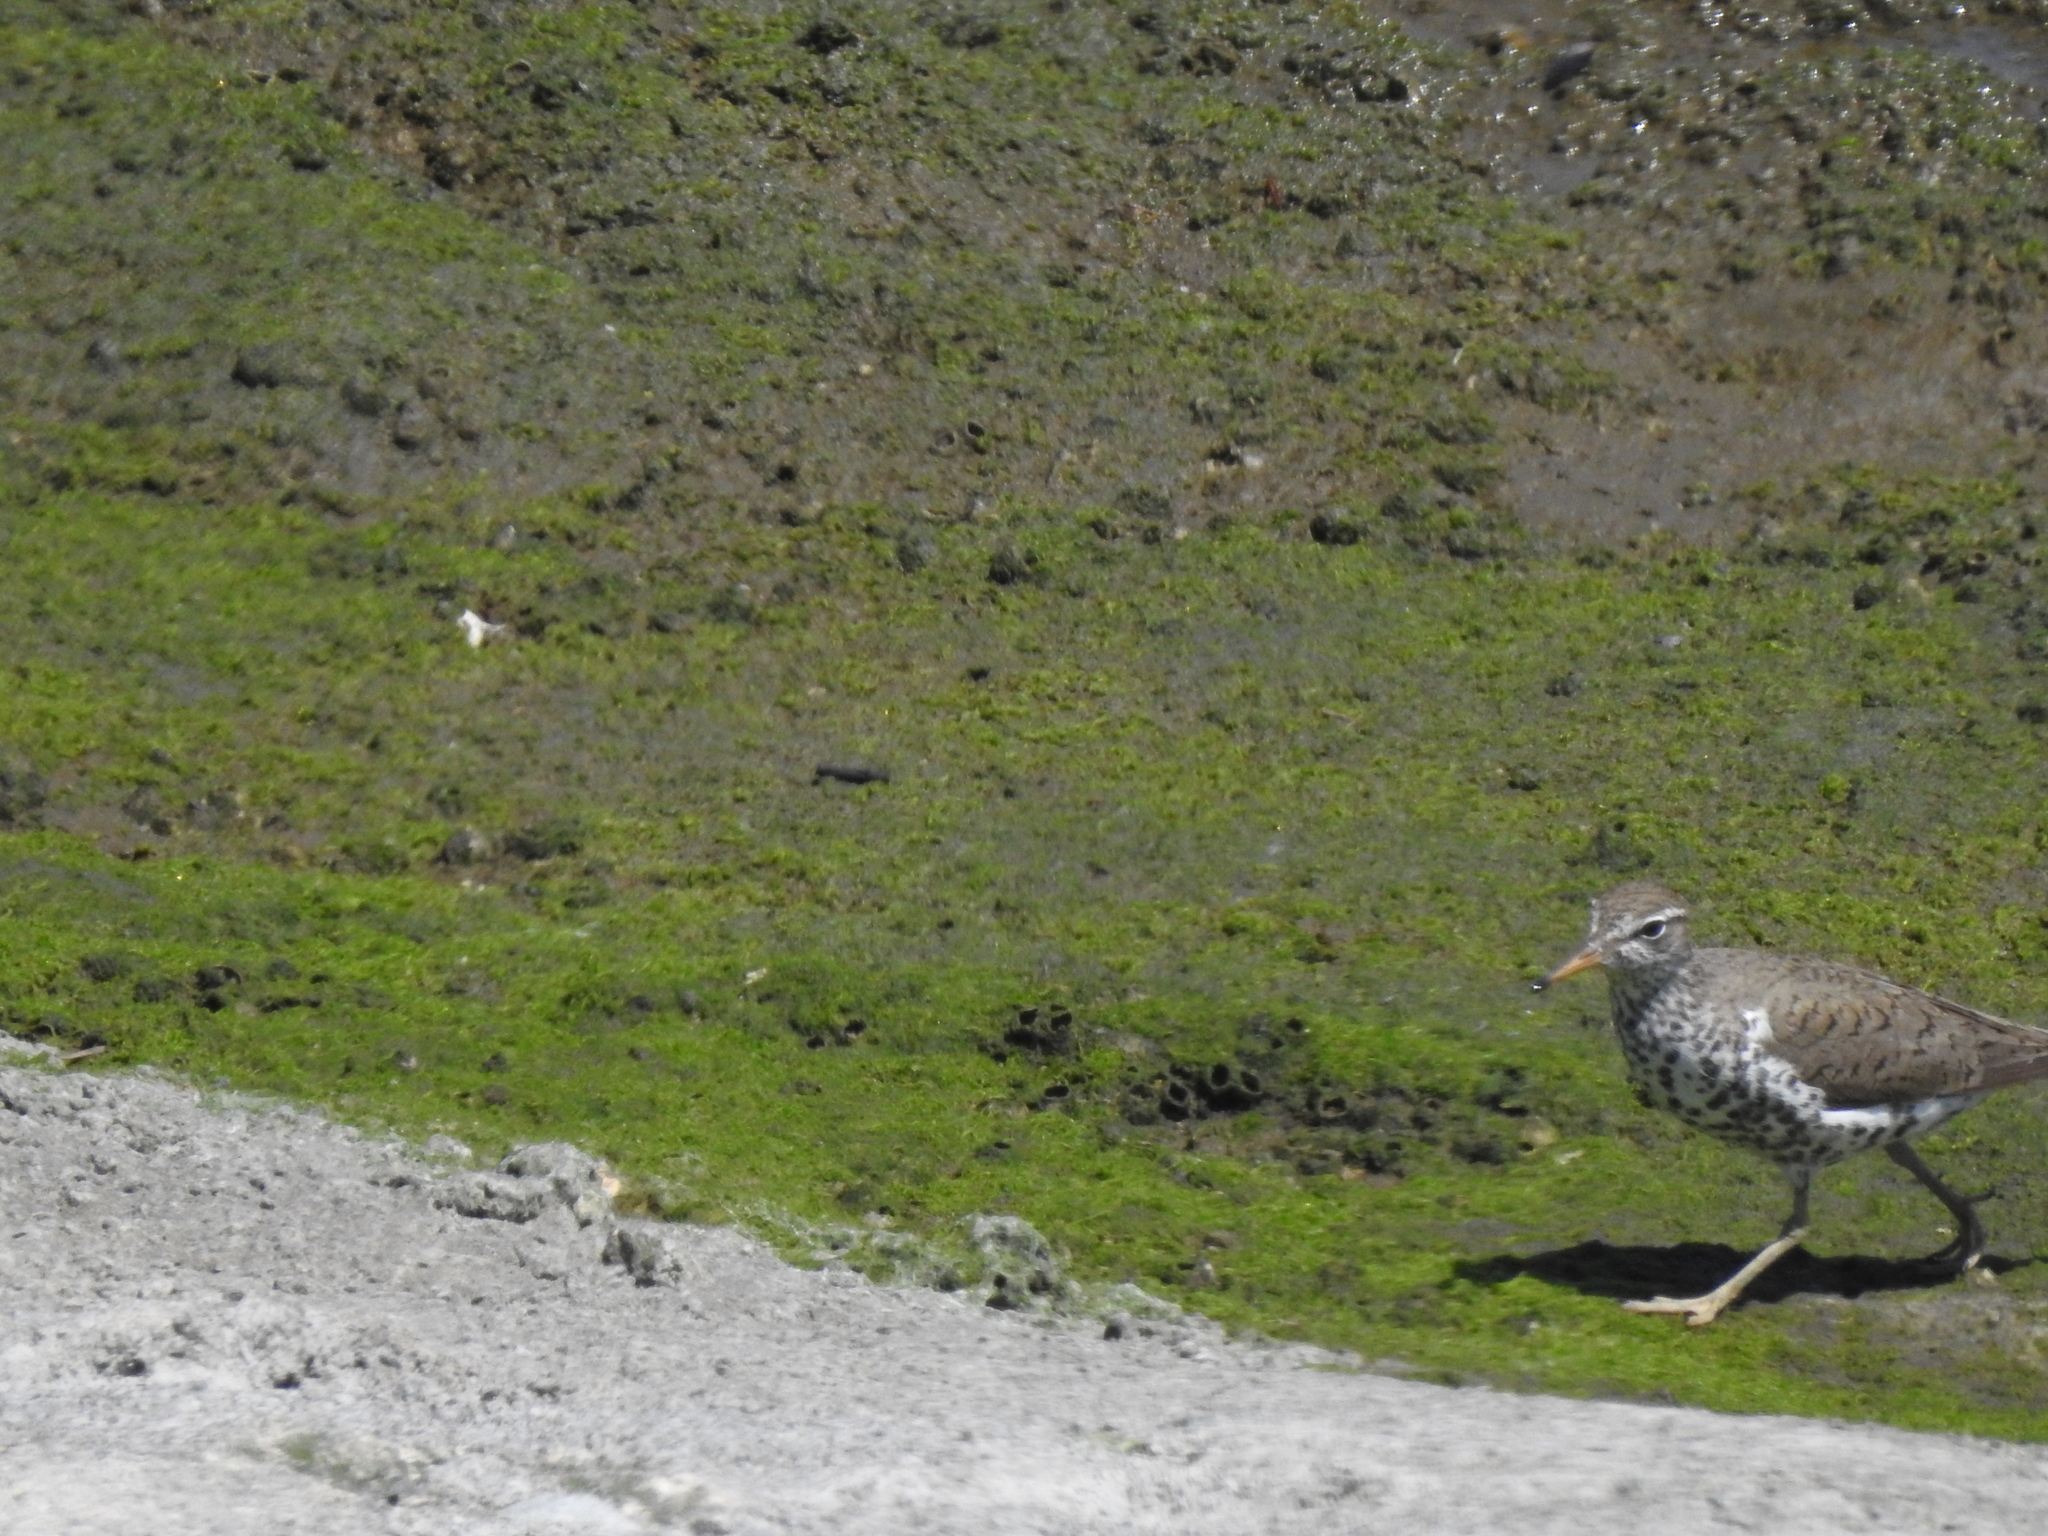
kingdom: Animalia
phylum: Chordata
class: Aves
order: Charadriiformes
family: Scolopacidae
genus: Actitis
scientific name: Actitis macularius
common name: Spotted sandpiper
